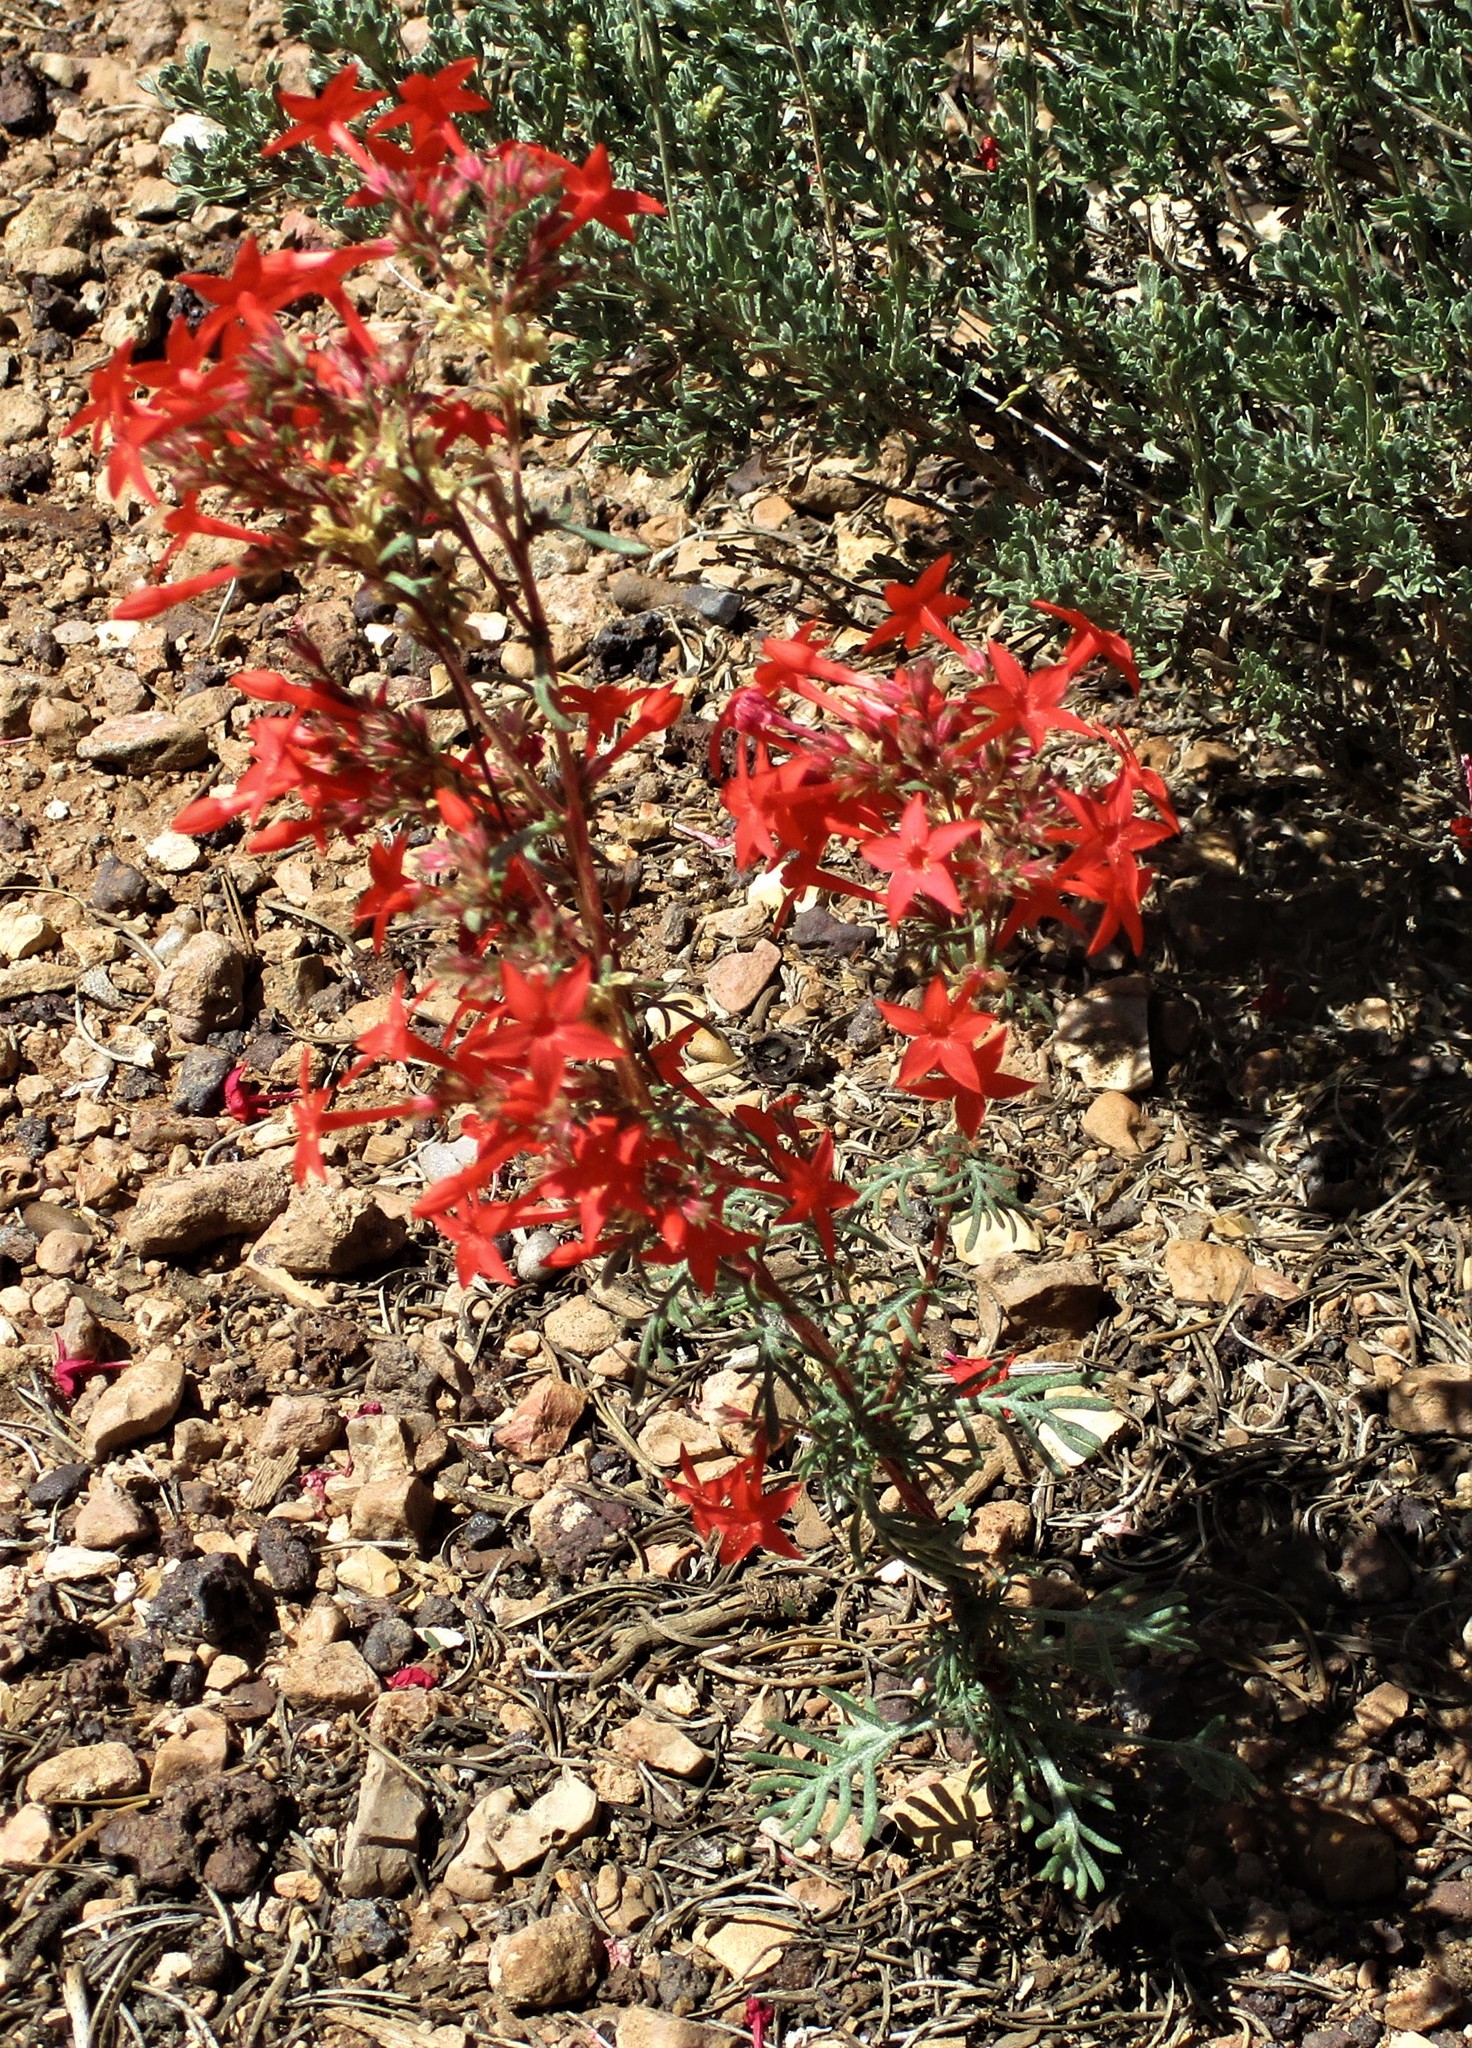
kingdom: Plantae
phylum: Tracheophyta
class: Magnoliopsida
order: Ericales
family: Polemoniaceae
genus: Ipomopsis
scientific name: Ipomopsis arizonica
